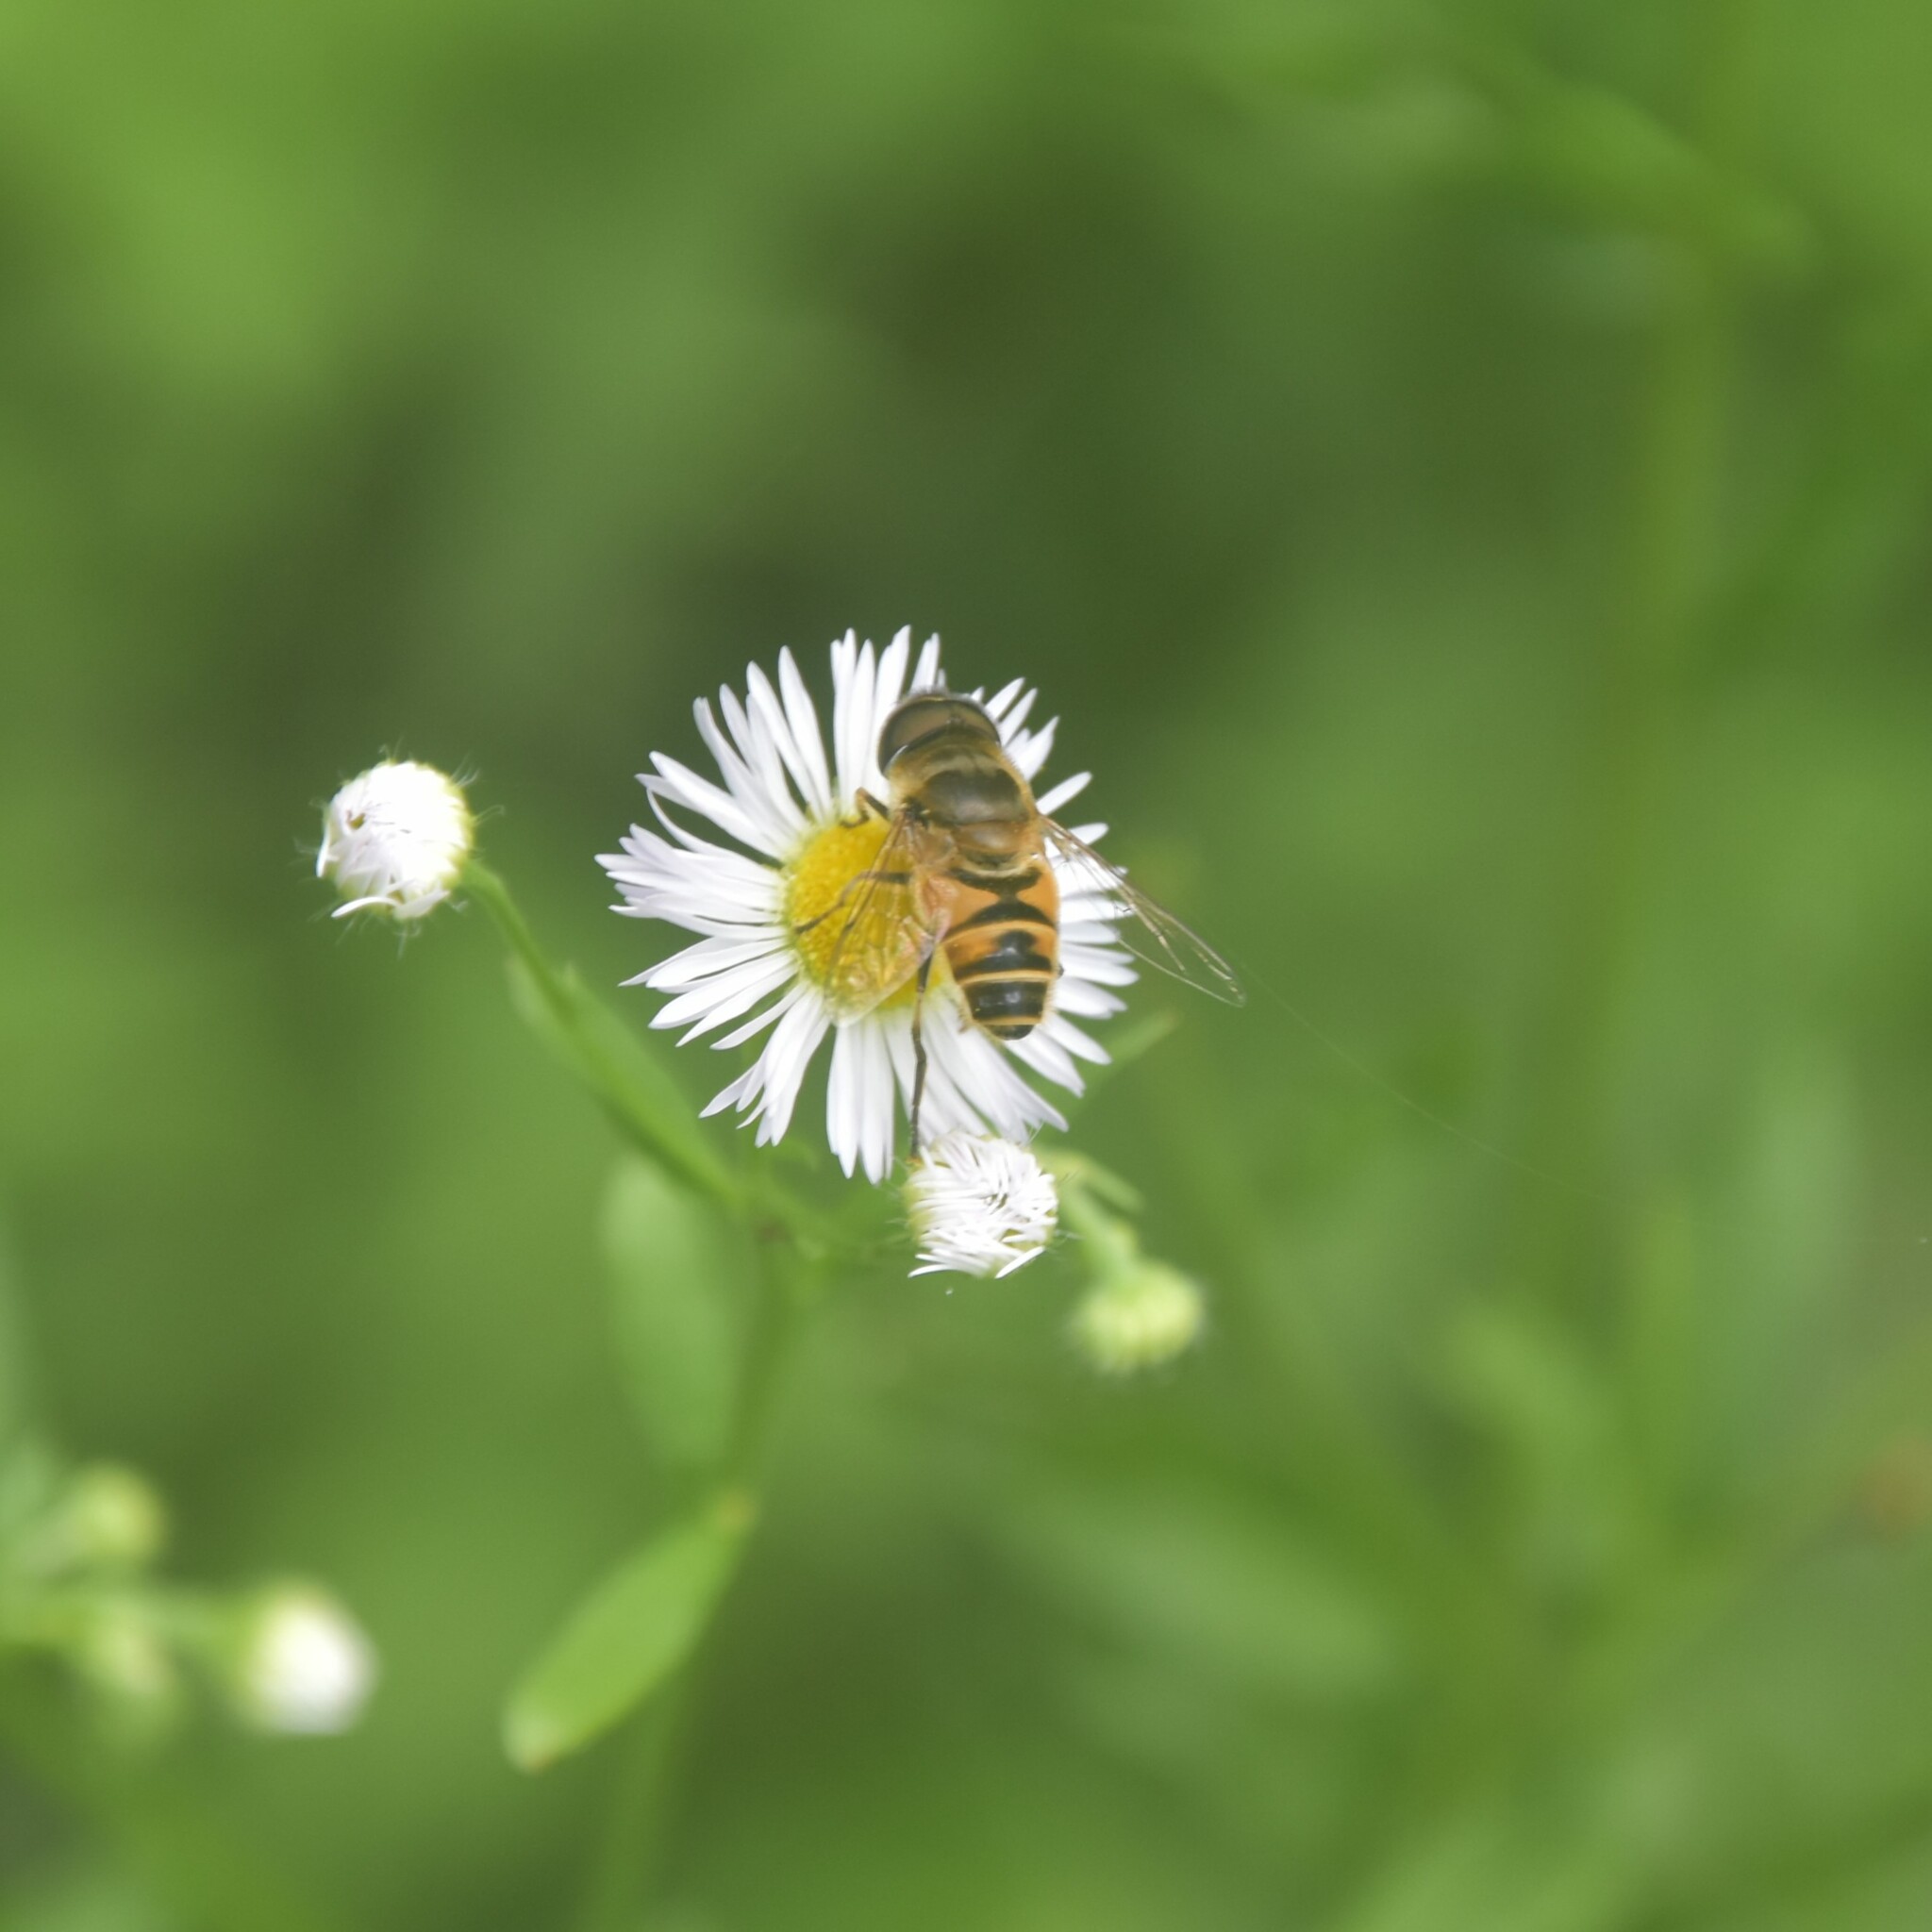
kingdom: Animalia
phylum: Arthropoda
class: Insecta
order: Diptera
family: Syrphidae
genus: Eristalis
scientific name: Eristalis cerealis
